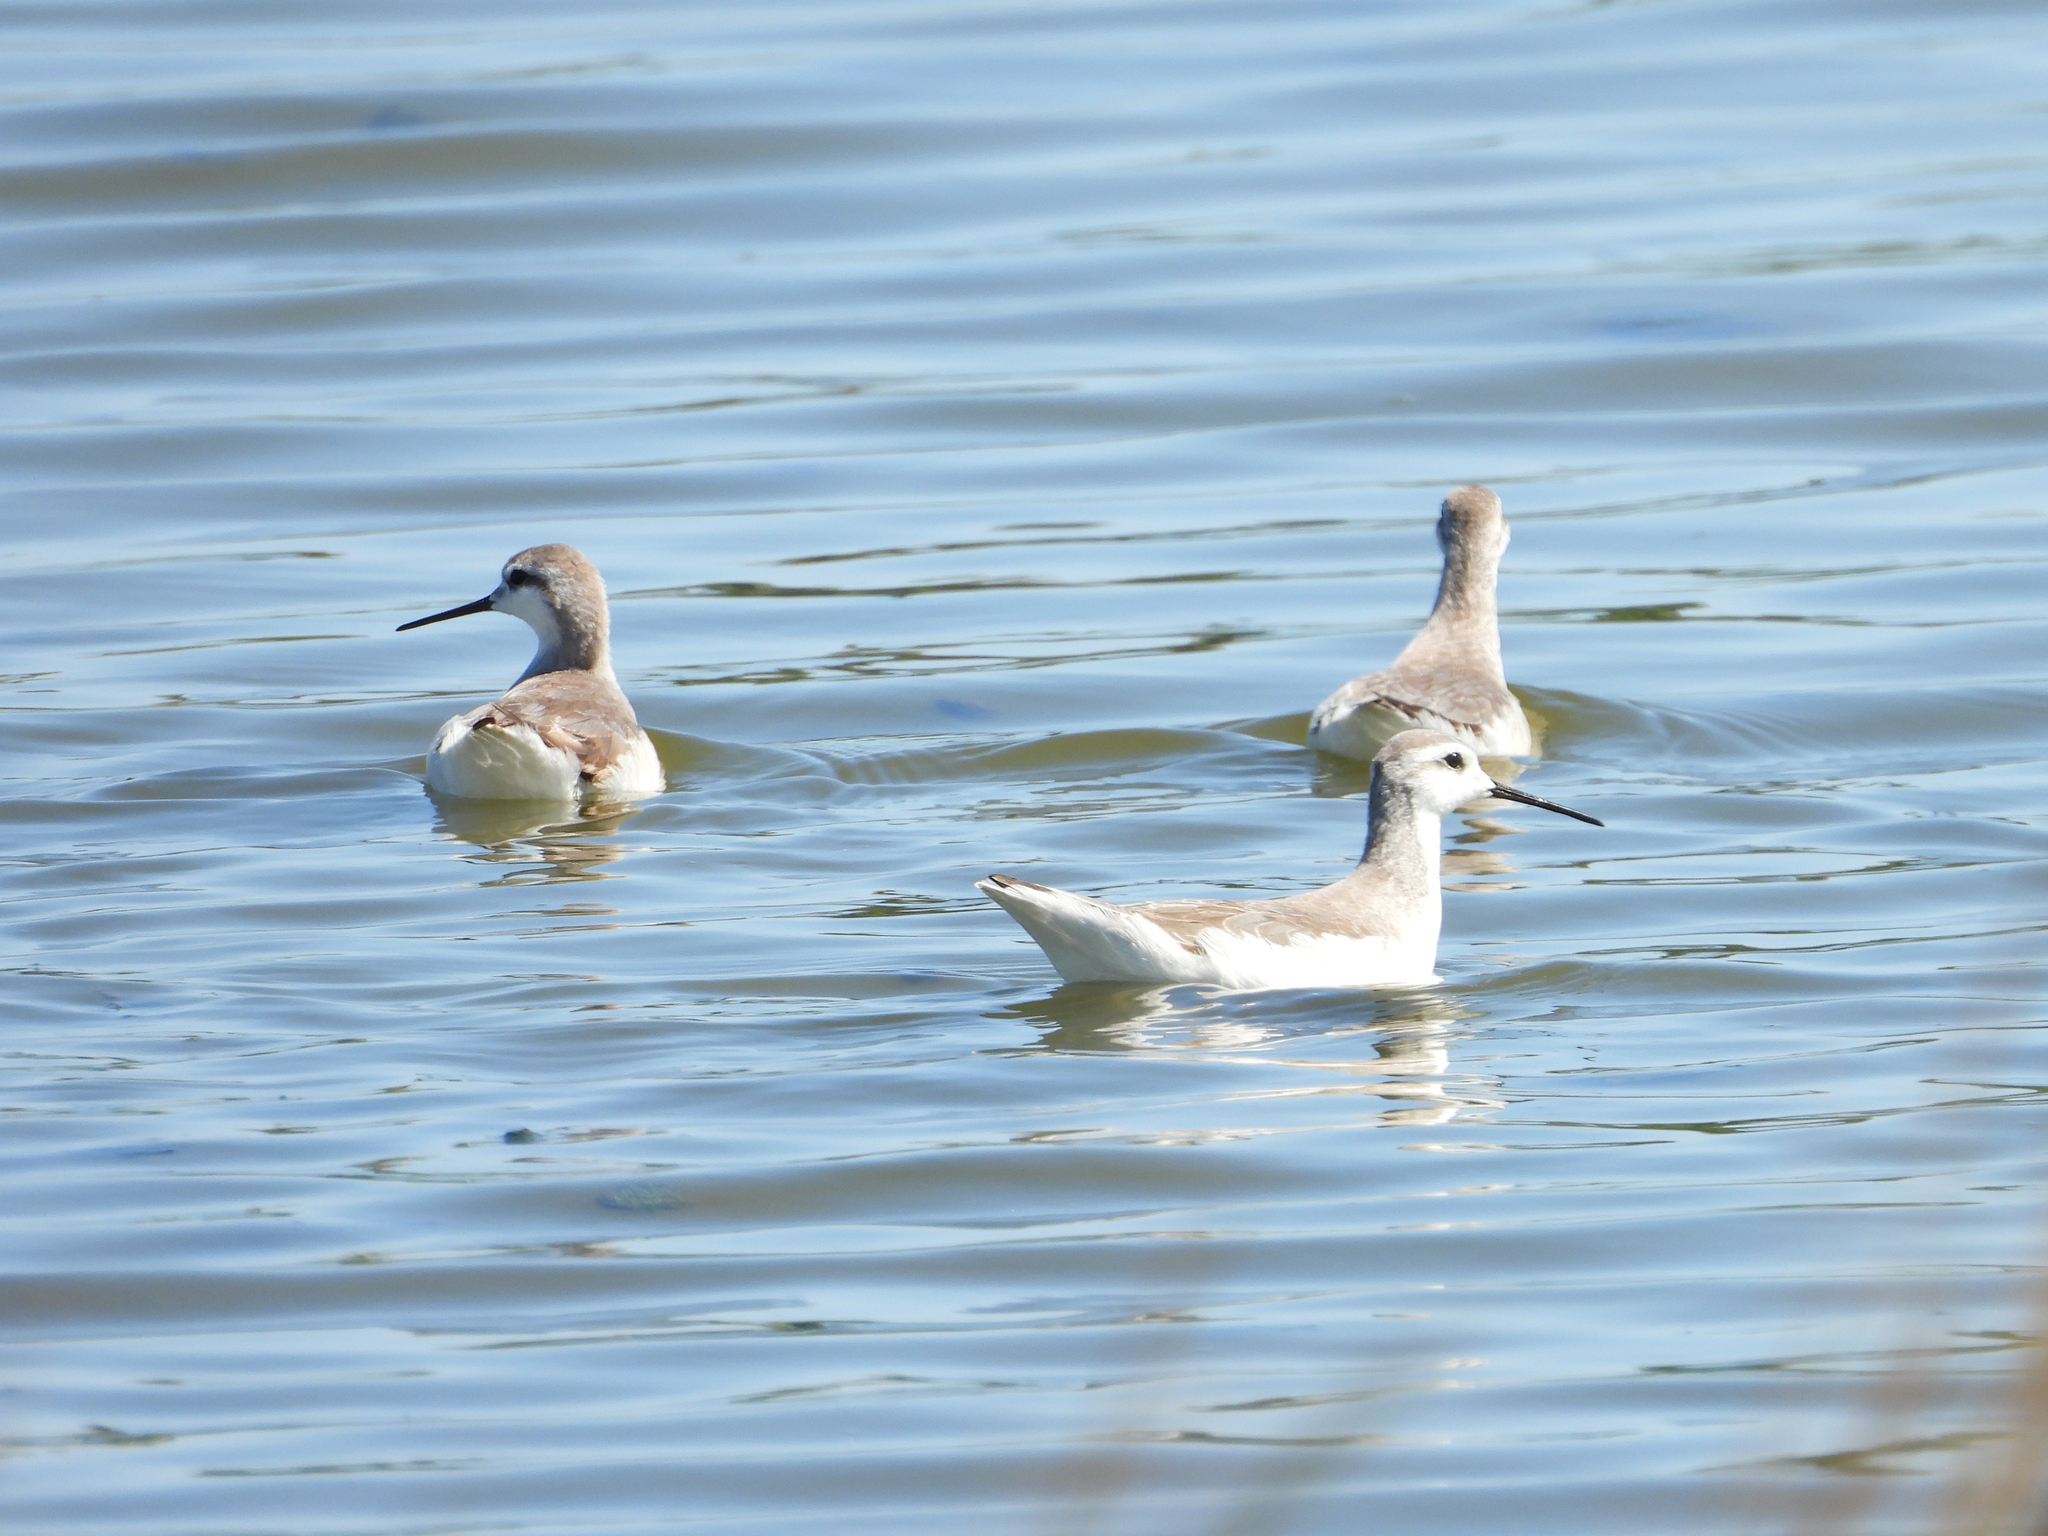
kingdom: Animalia
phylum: Chordata
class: Aves
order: Charadriiformes
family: Scolopacidae
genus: Phalaropus
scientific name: Phalaropus tricolor
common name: Wilson's phalarope
